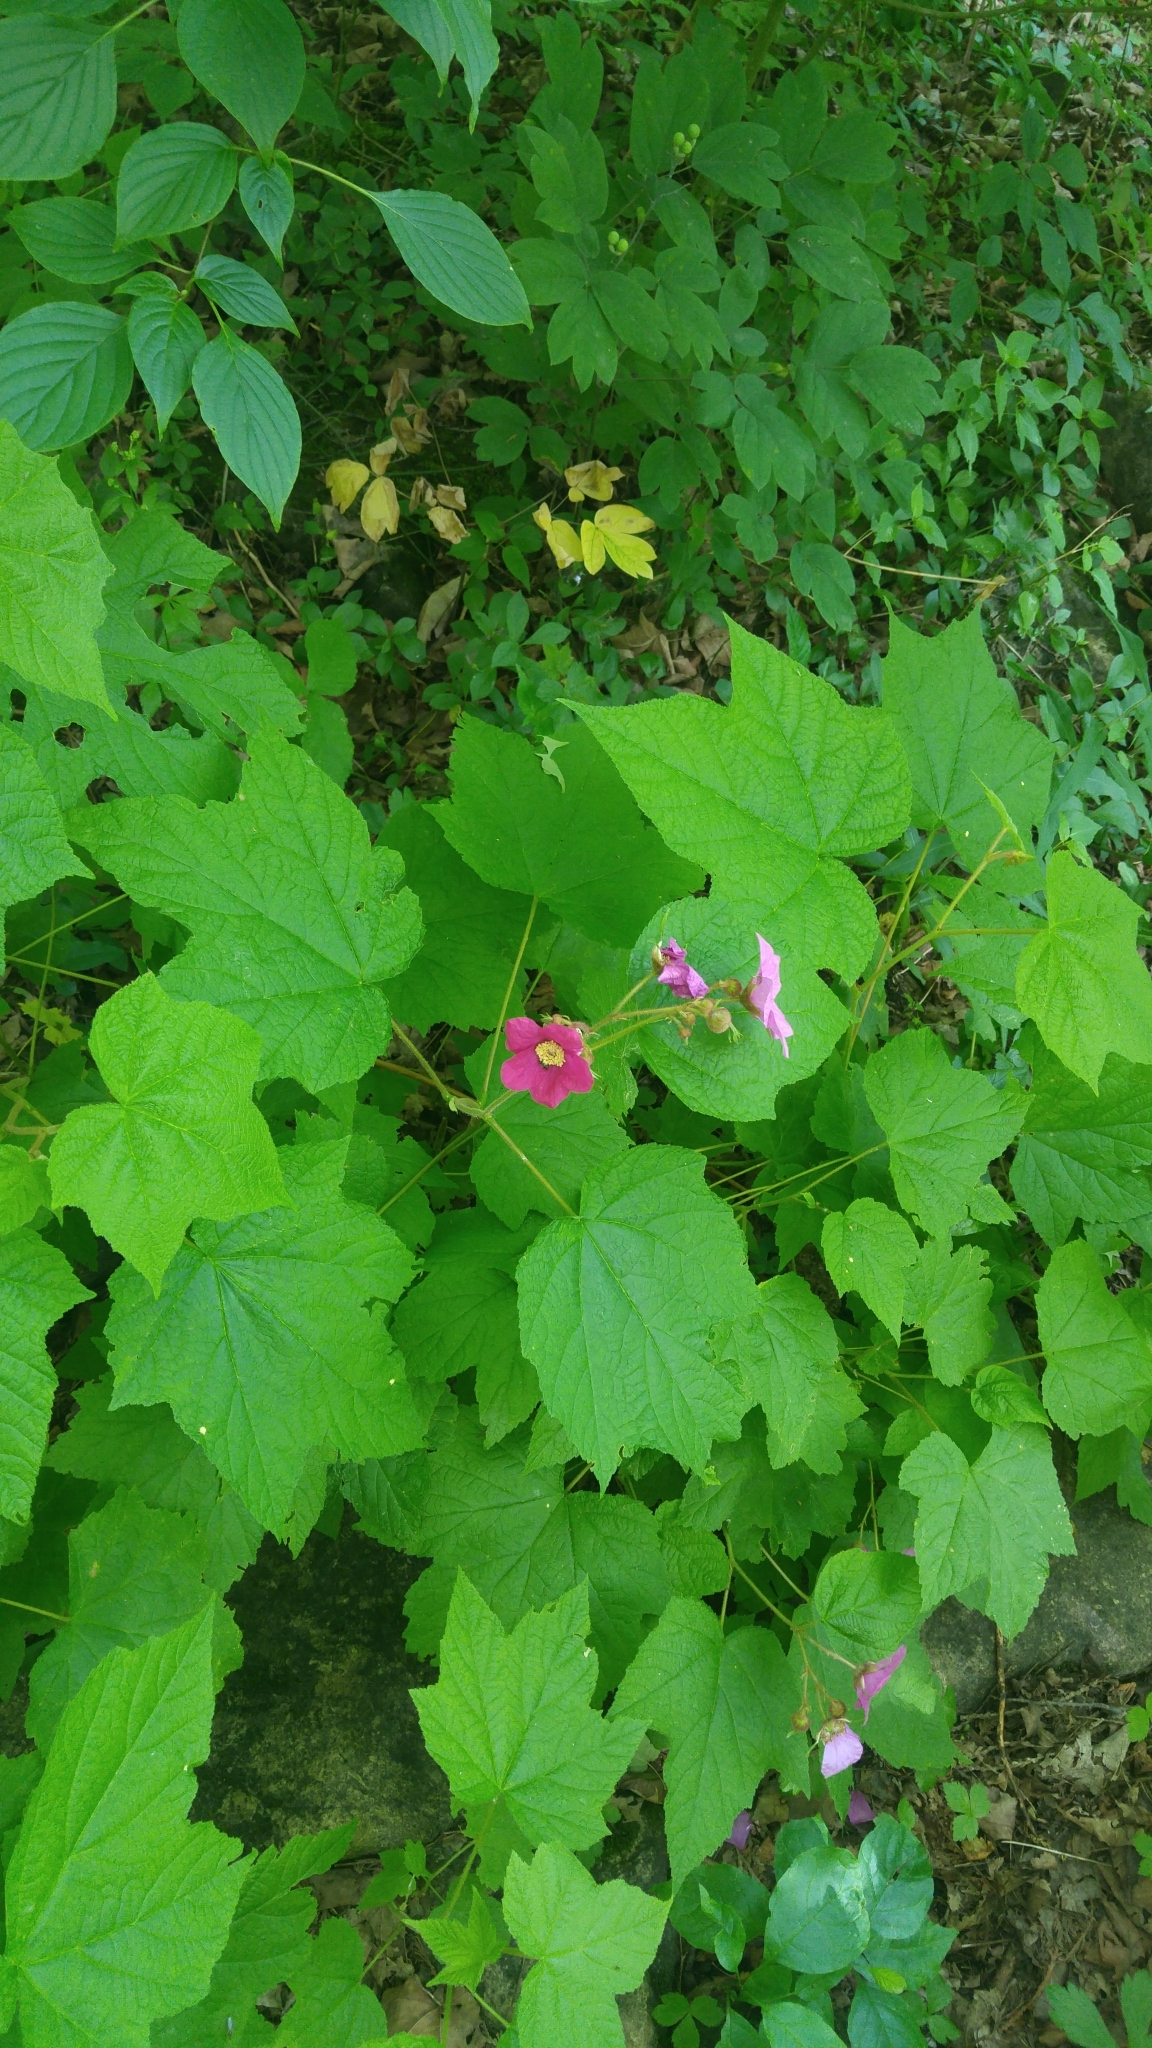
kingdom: Plantae
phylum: Tracheophyta
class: Magnoliopsida
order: Rosales
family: Rosaceae
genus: Rubus
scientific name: Rubus odoratus
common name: Purple-flowered raspberry
